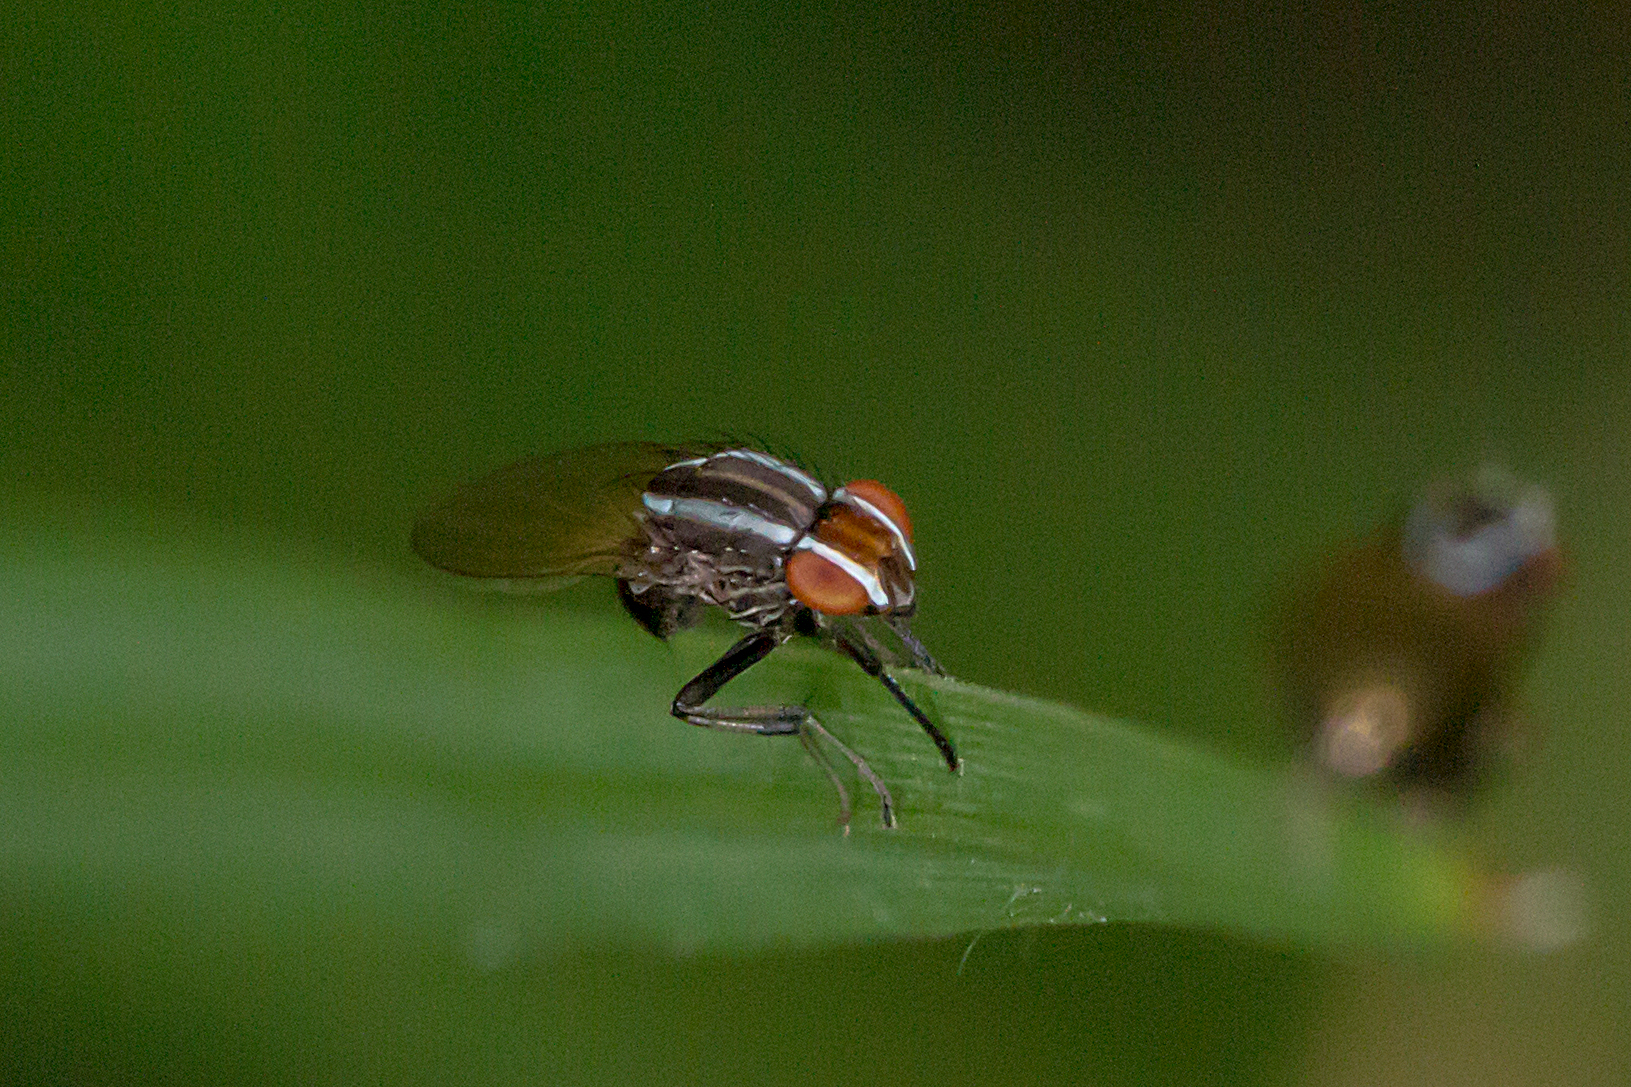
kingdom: Animalia
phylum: Arthropoda
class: Insecta
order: Diptera
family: Lauxaniidae
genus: Poecilohetaerus
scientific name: Poecilohetaerus schineri
